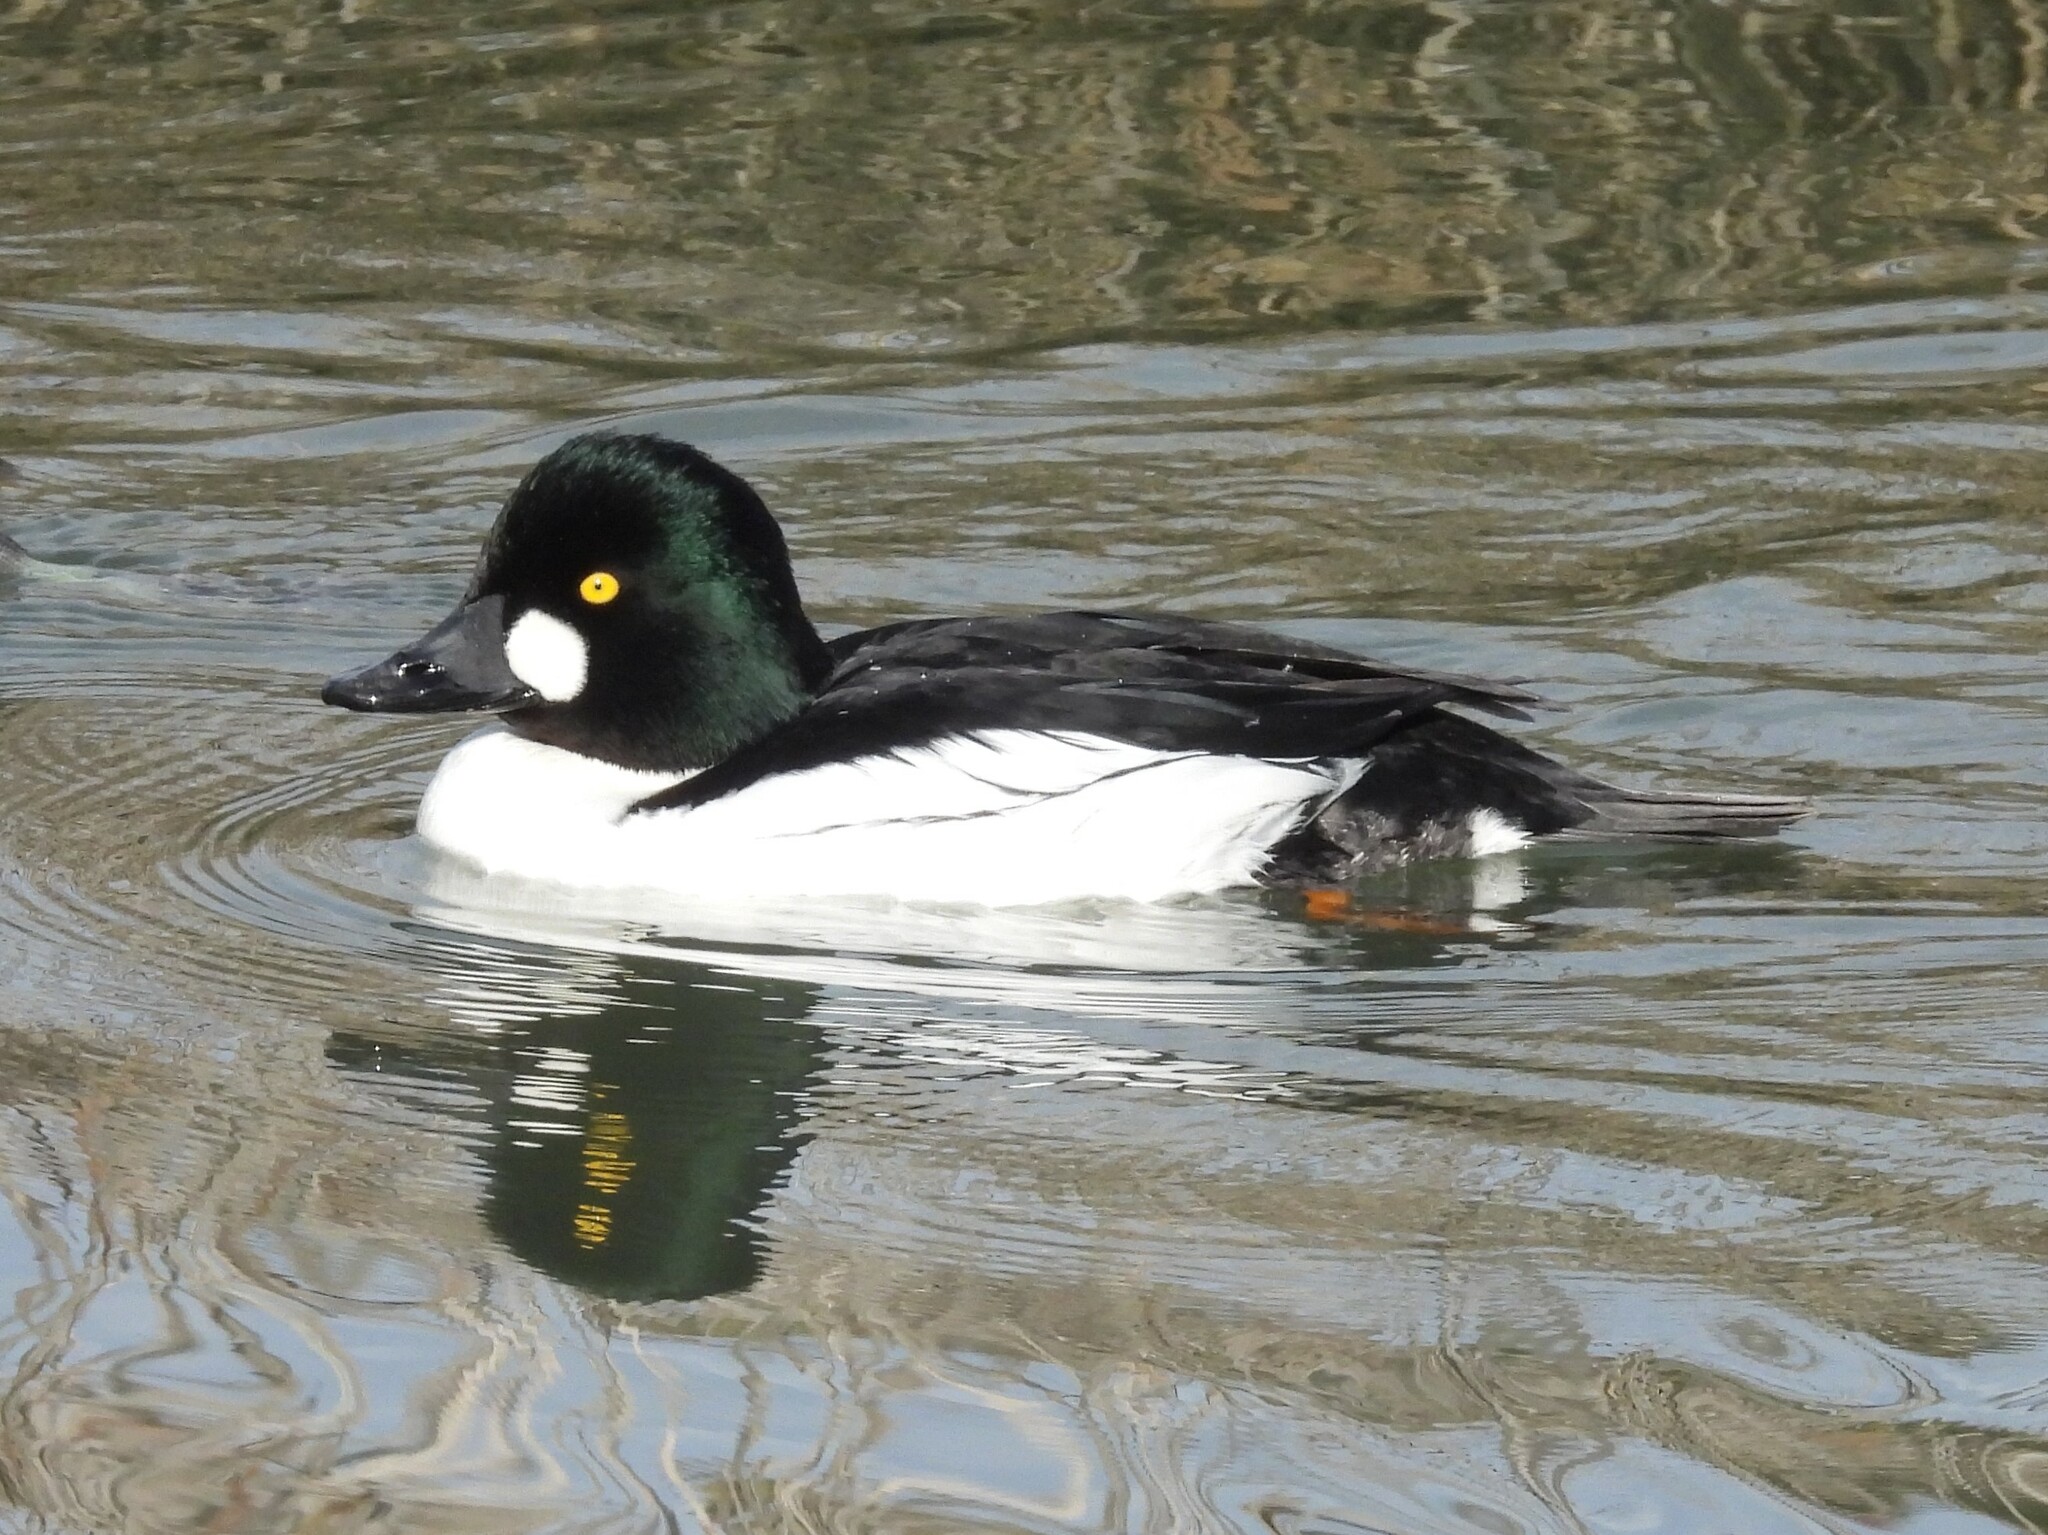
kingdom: Animalia
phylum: Chordata
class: Aves
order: Anseriformes
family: Anatidae
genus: Bucephala
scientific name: Bucephala clangula
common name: Common goldeneye
